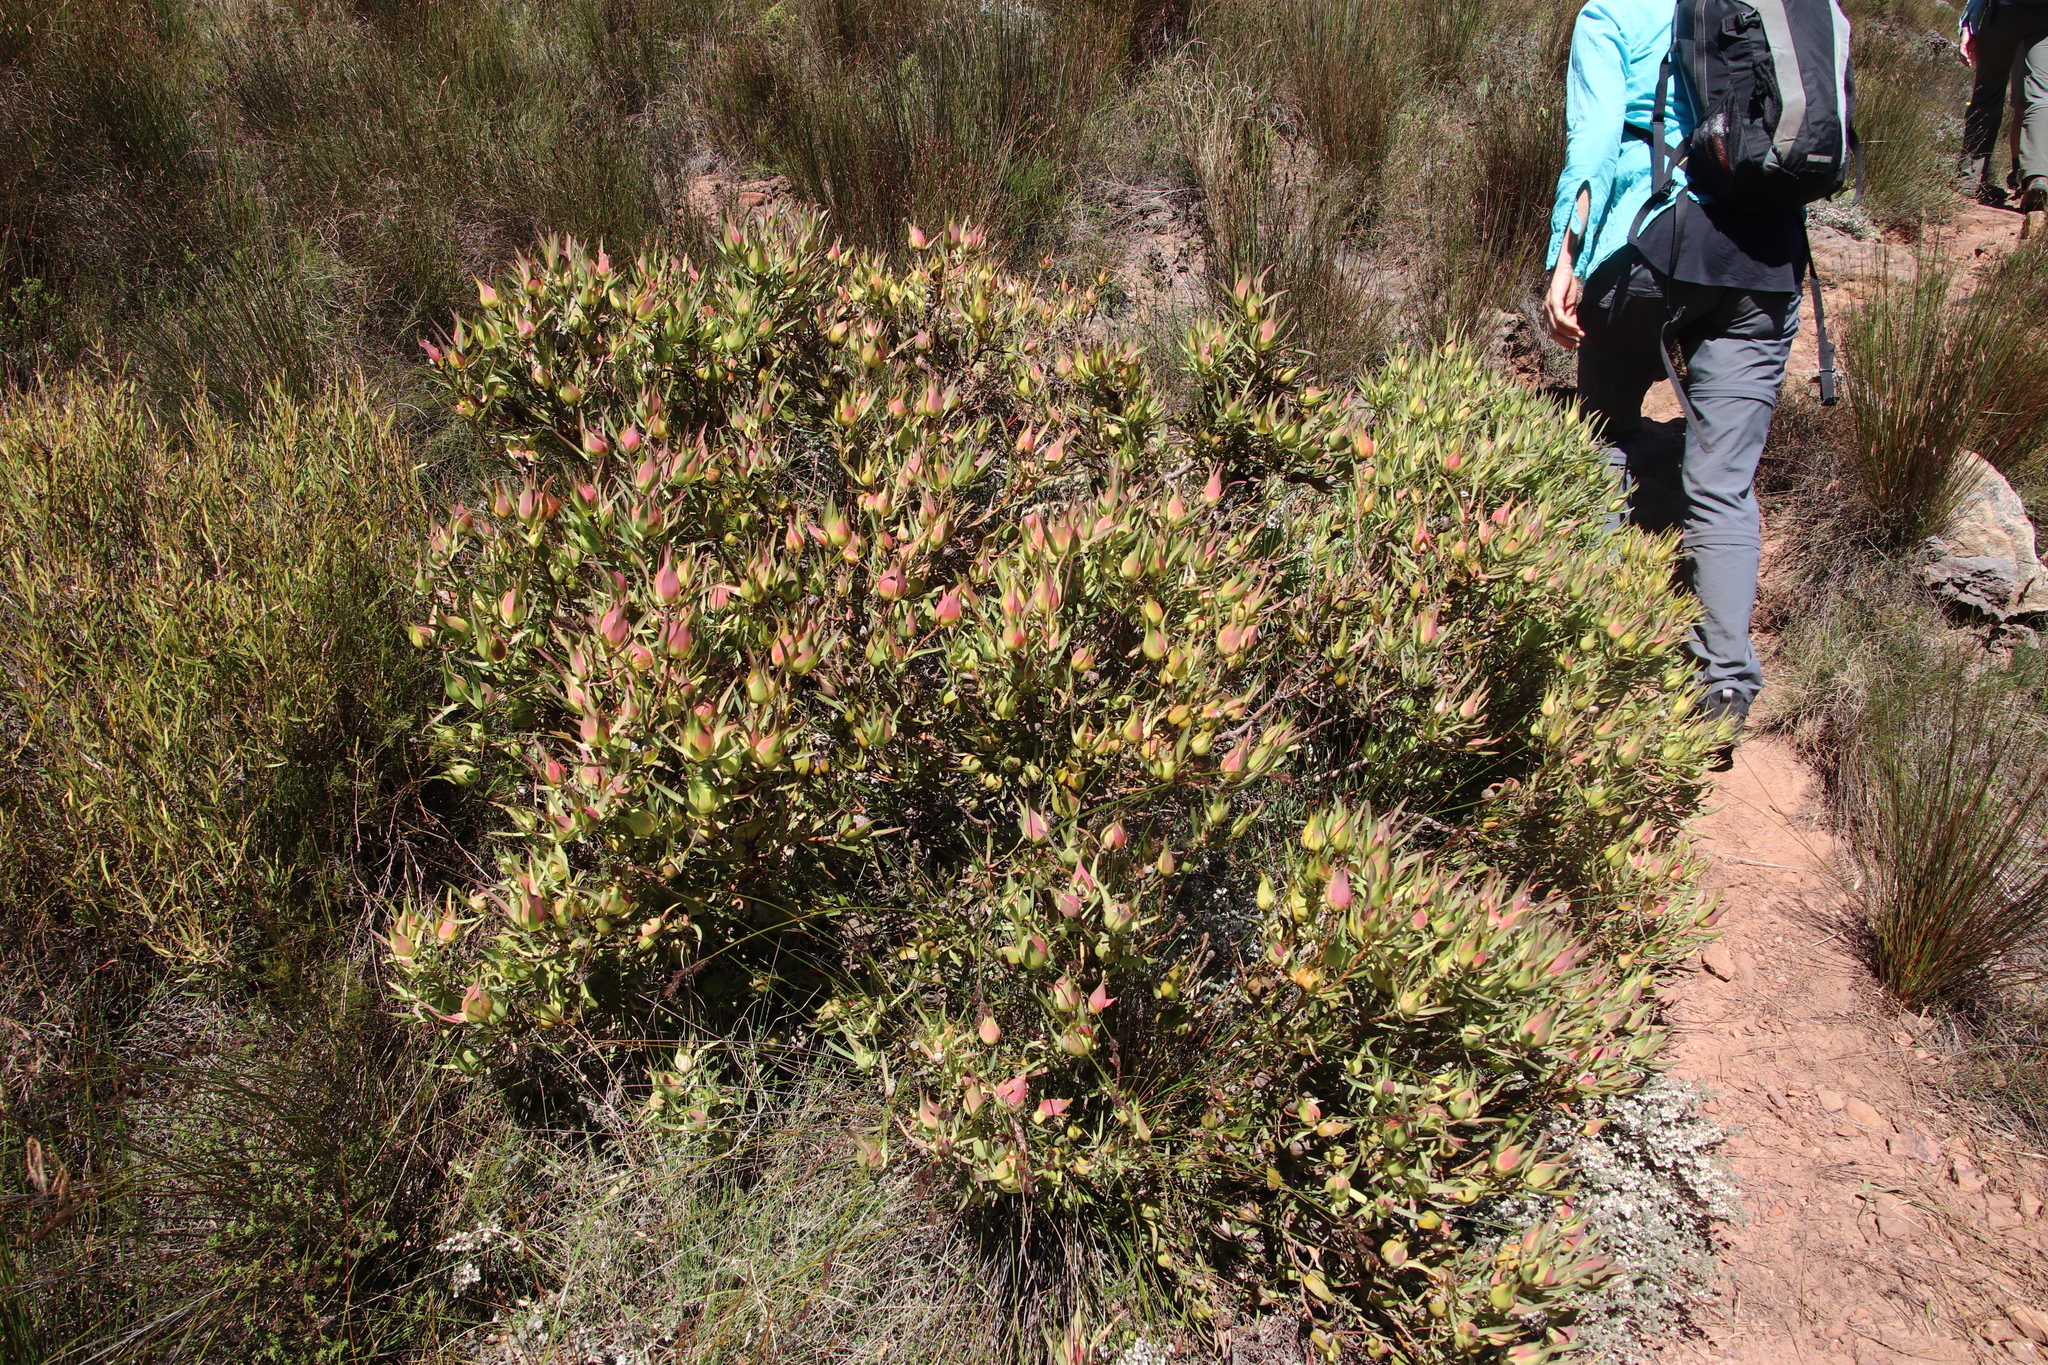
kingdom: Plantae
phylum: Tracheophyta
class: Magnoliopsida
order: Proteales
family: Proteaceae
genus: Leucadendron
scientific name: Leucadendron salignum
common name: Common sunshine conebush
